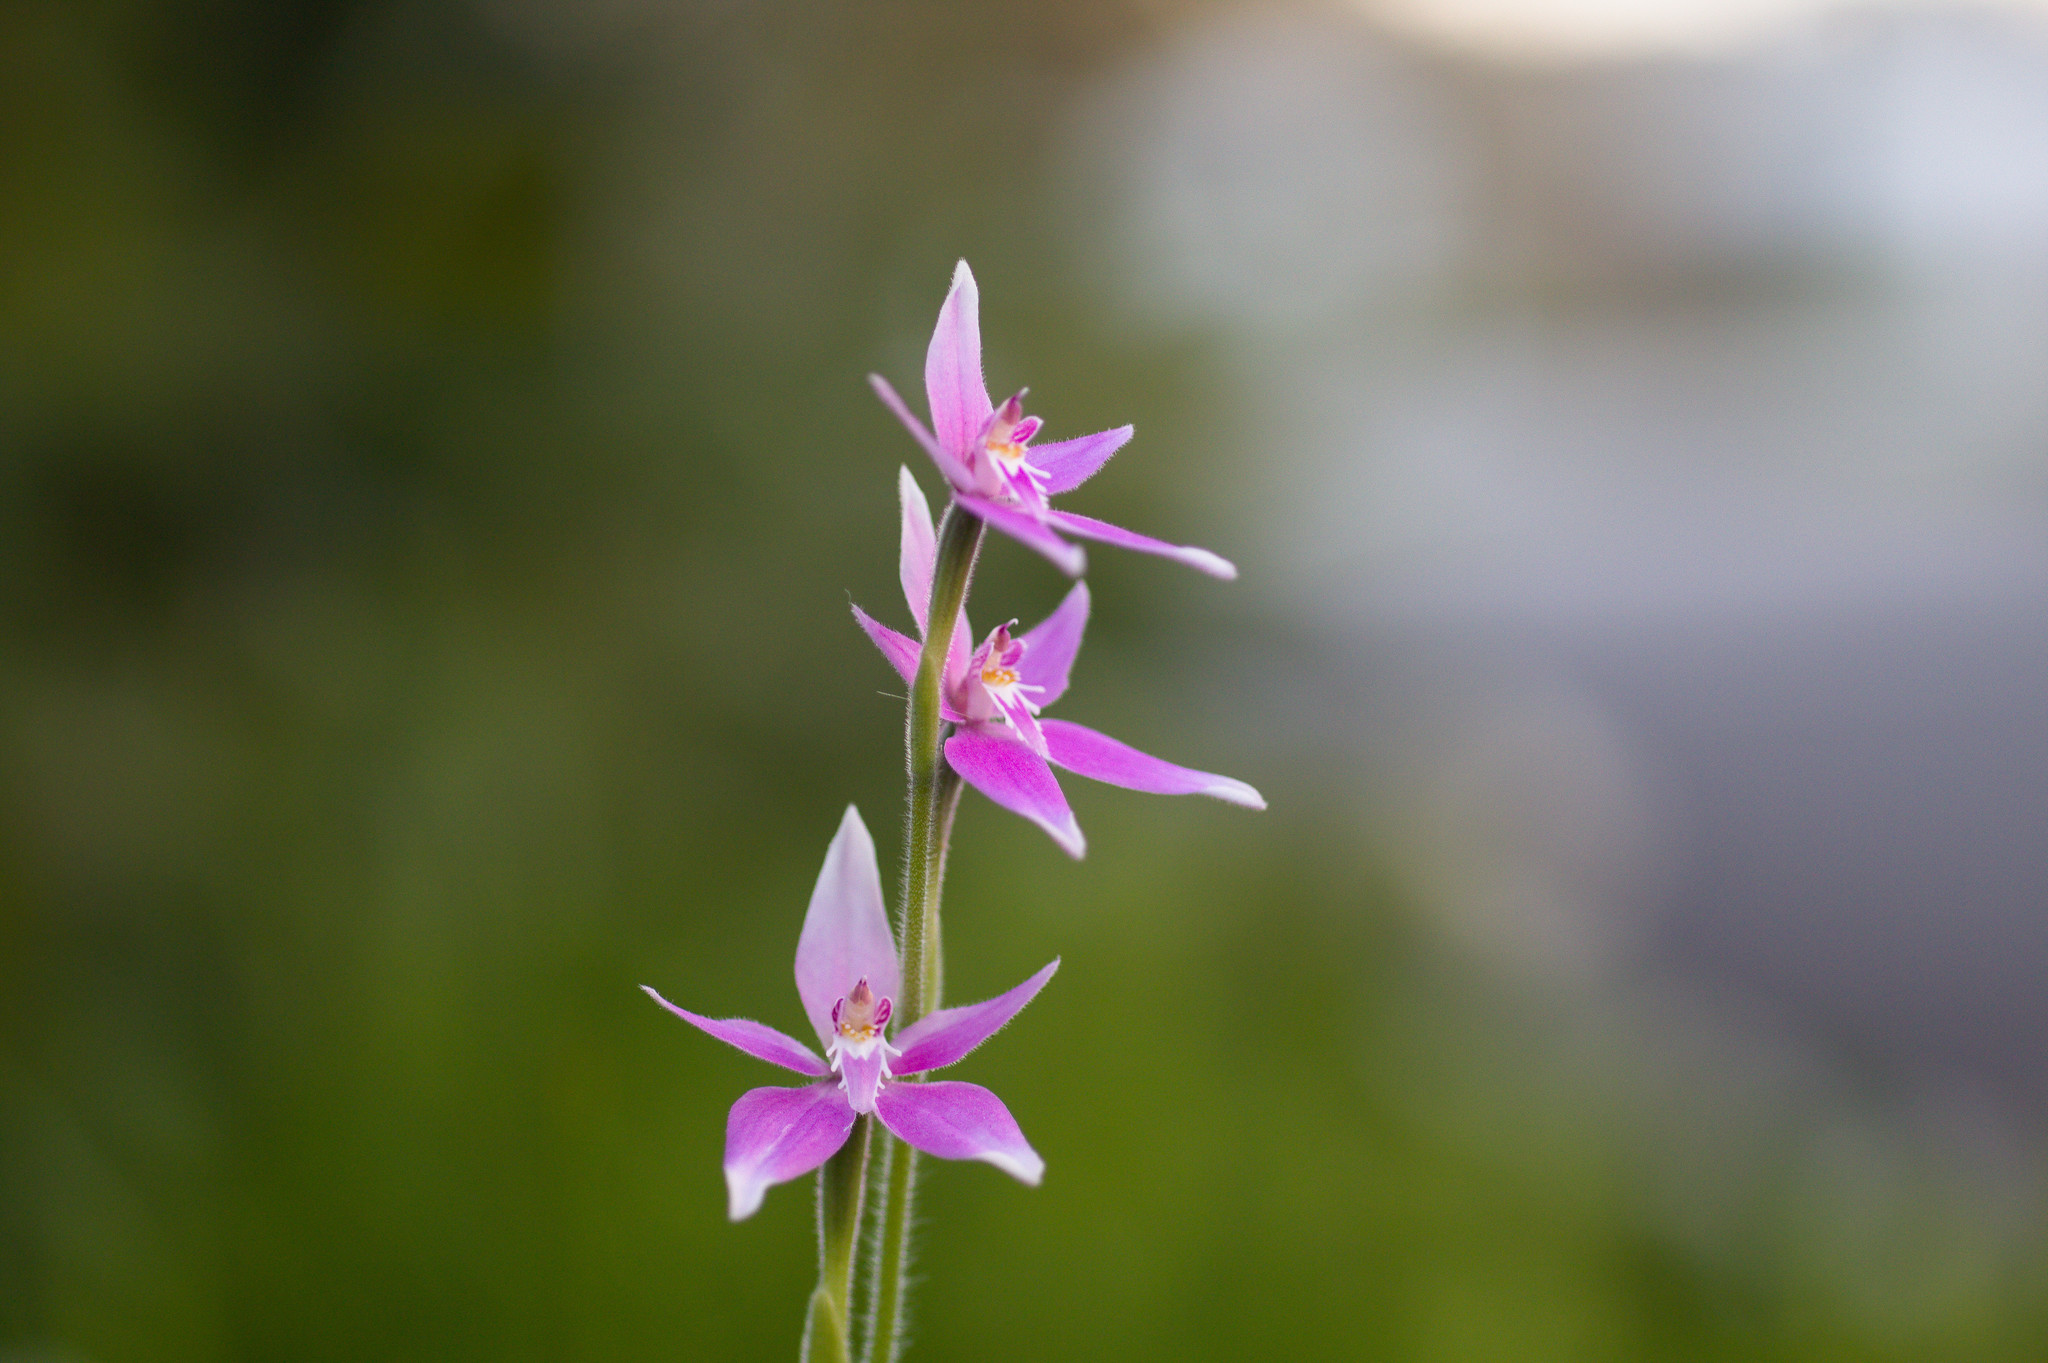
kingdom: Plantae
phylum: Tracheophyta
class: Liliopsida
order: Asparagales
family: Orchidaceae
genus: Caladenia
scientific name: Caladenia latifolia
